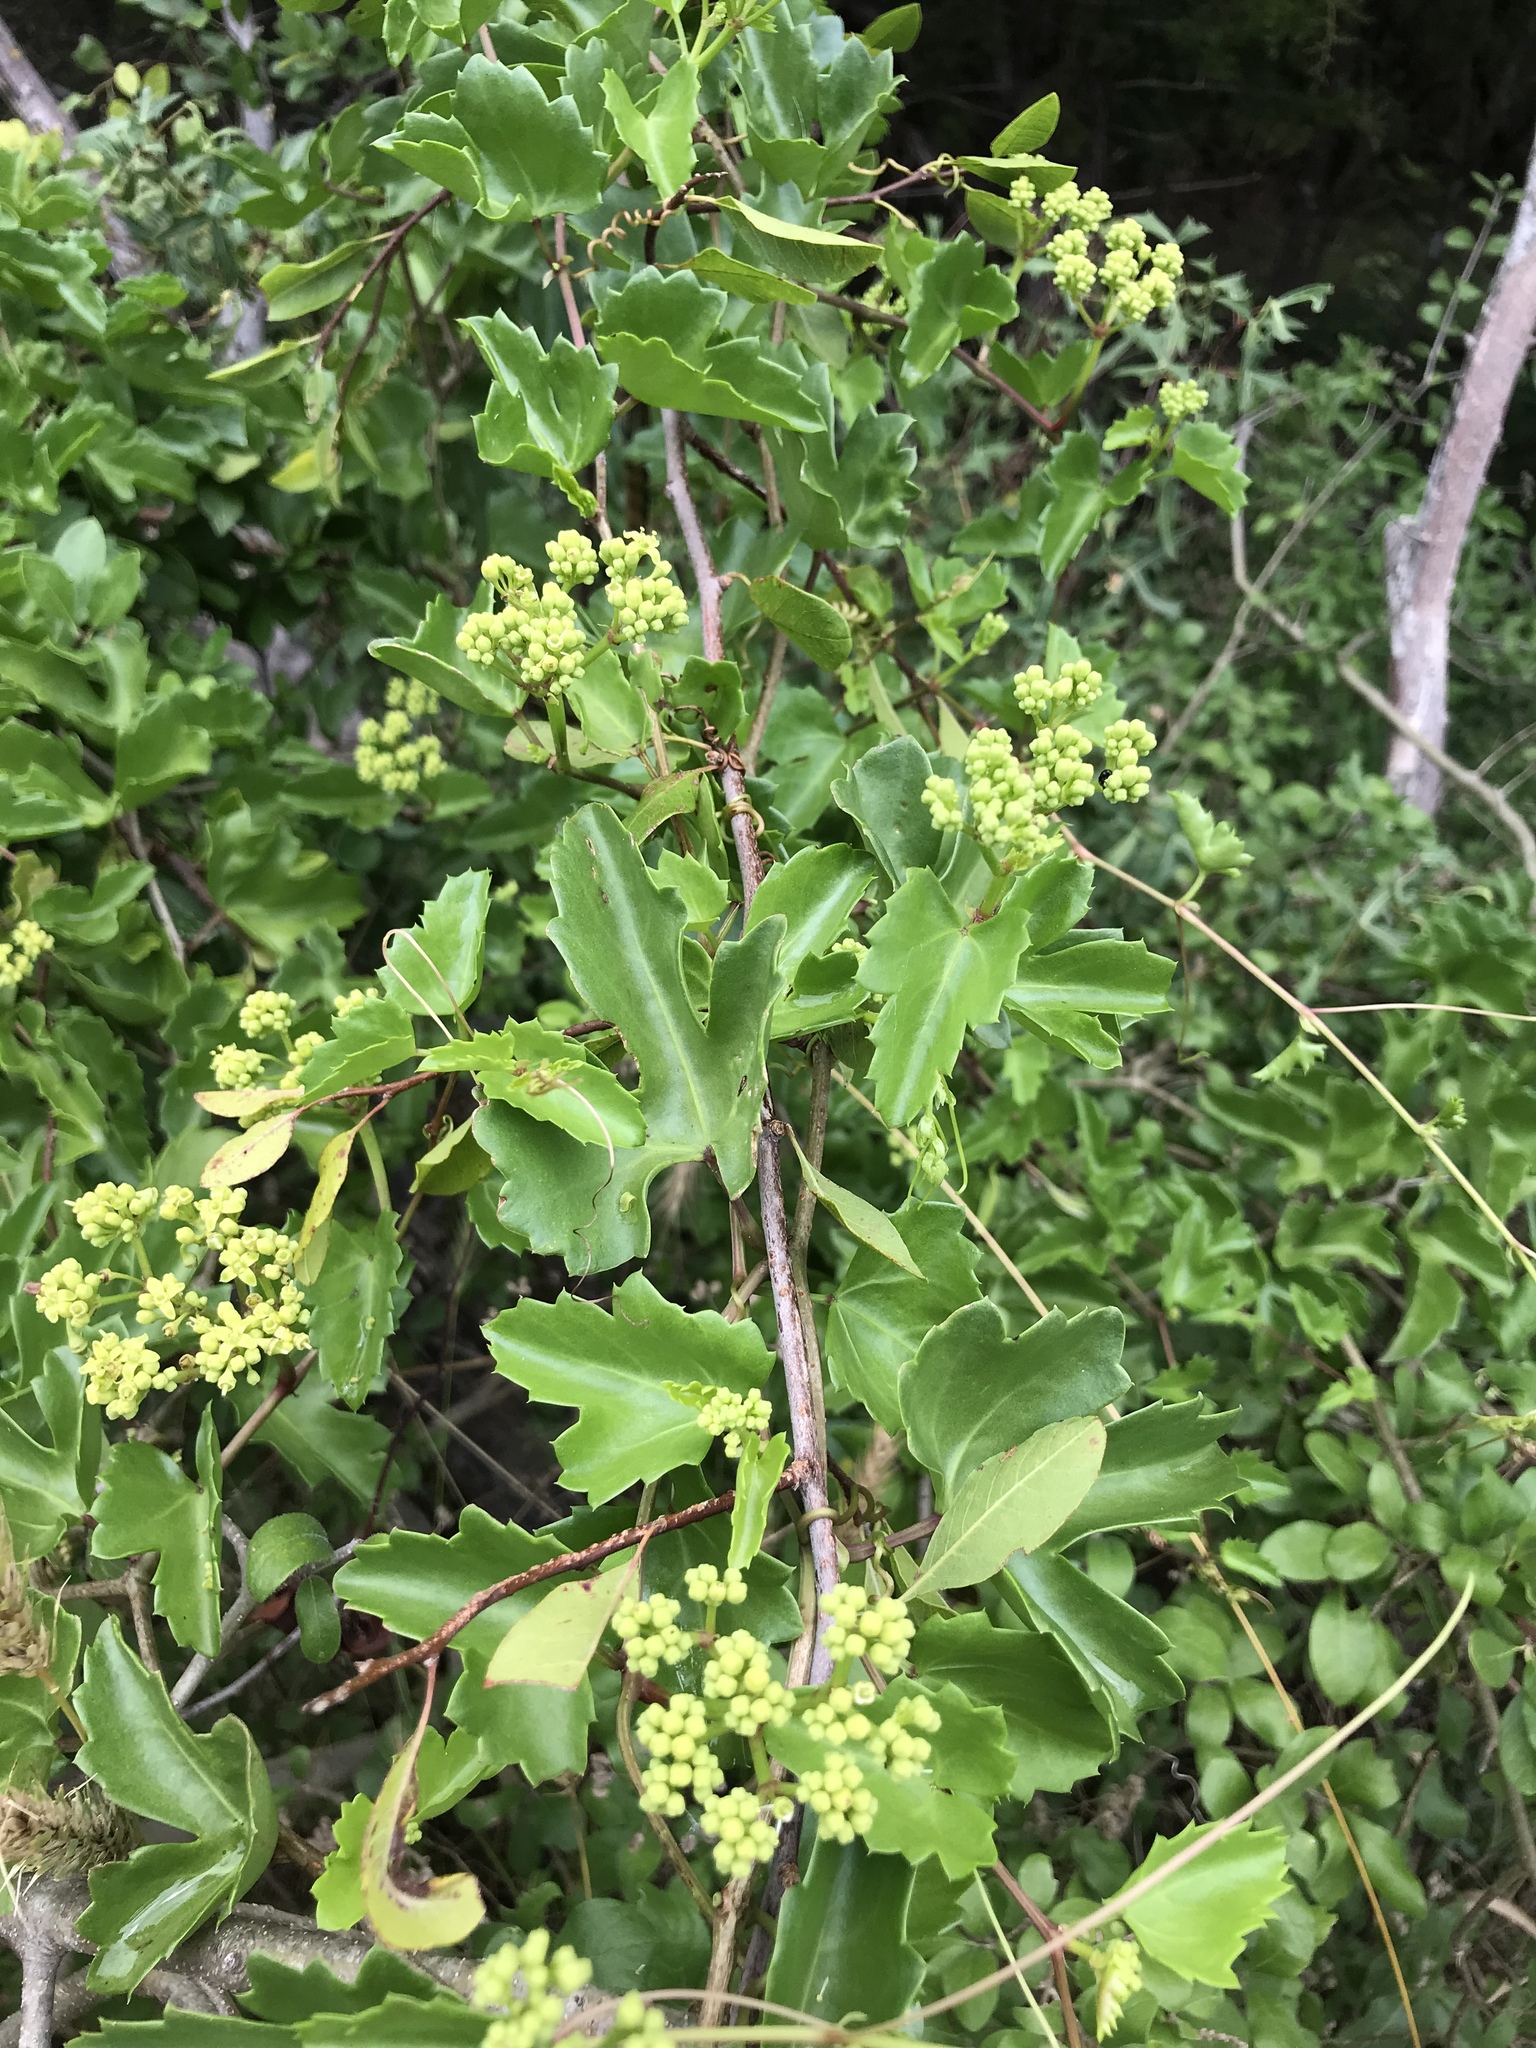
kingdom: Plantae
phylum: Tracheophyta
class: Magnoliopsida
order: Vitales
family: Vitaceae
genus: Cissus
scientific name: Cissus trifoliata
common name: Vine-sorrel
